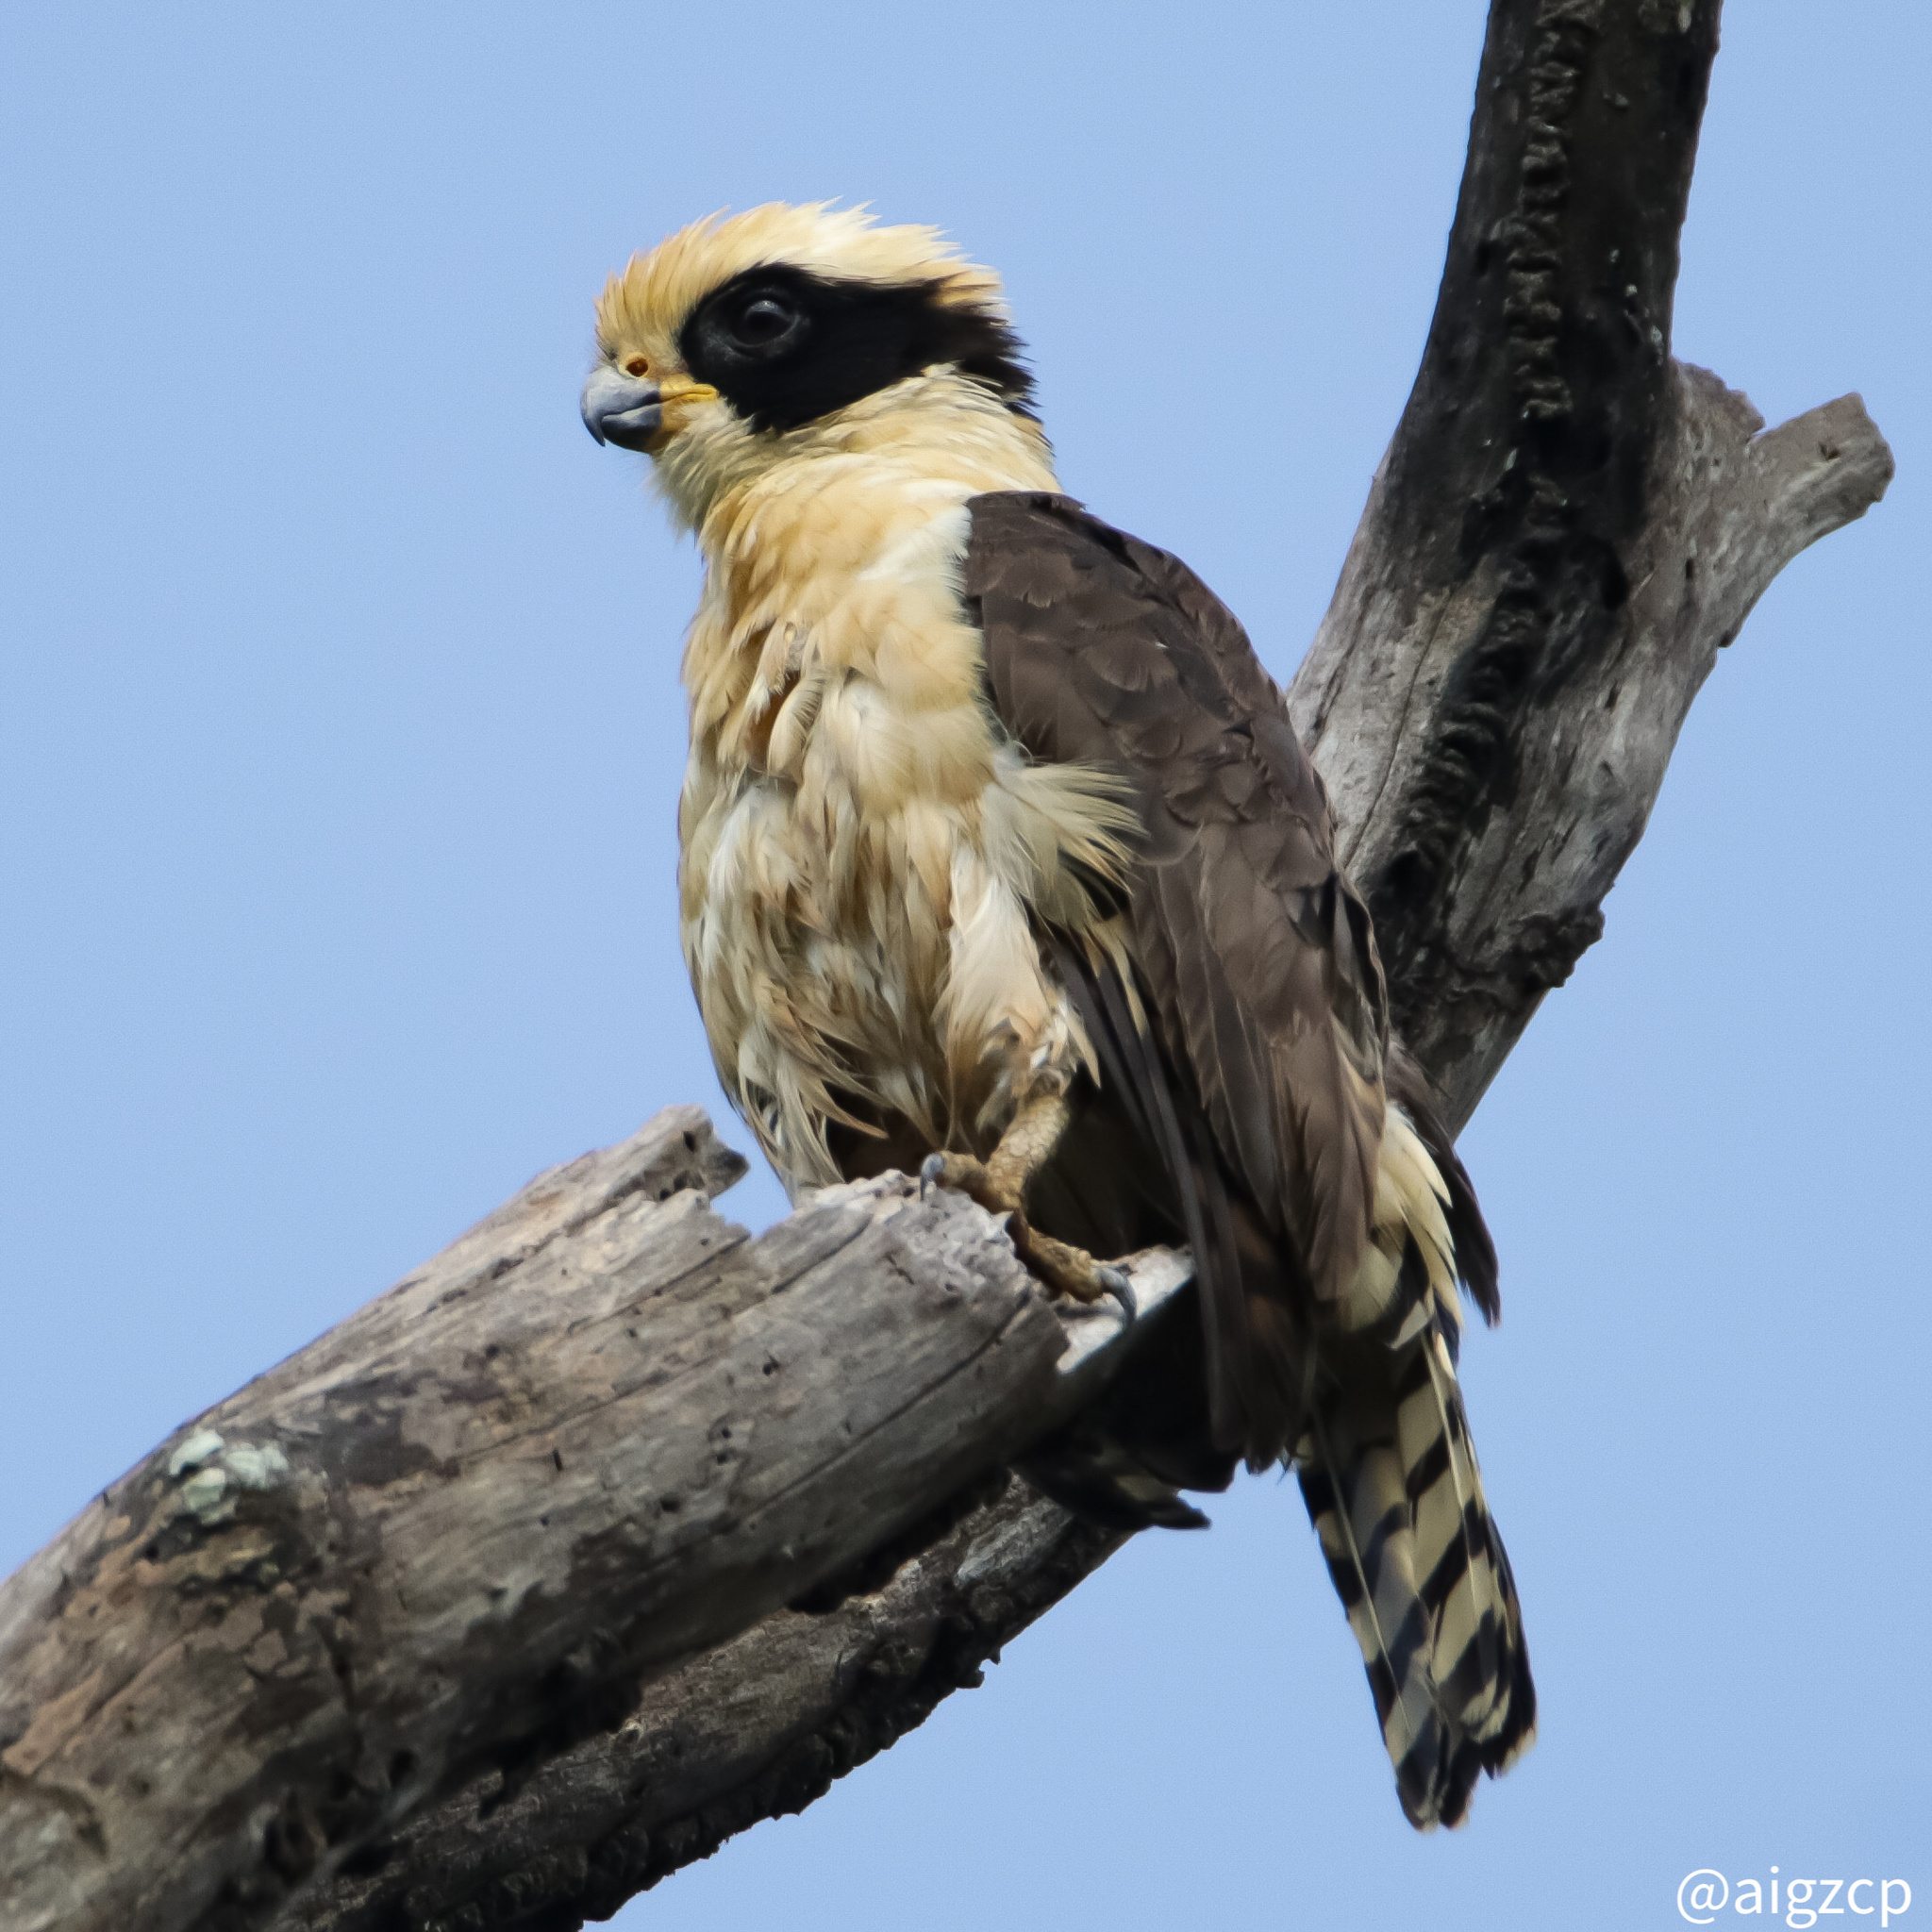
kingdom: Animalia
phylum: Chordata
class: Aves
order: Falconiformes
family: Falconidae
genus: Herpetotheres
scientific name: Herpetotheres cachinnans
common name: Laughing falcon
